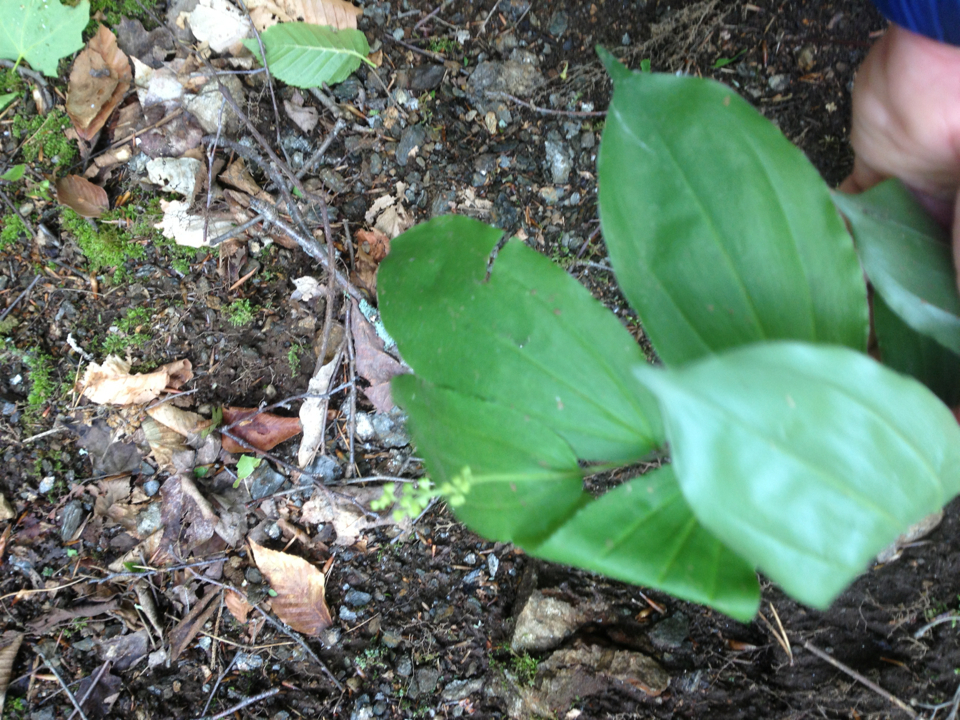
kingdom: Plantae
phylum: Tracheophyta
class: Liliopsida
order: Asparagales
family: Asparagaceae
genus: Maianthemum
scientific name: Maianthemum racemosum
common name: False spikenard
